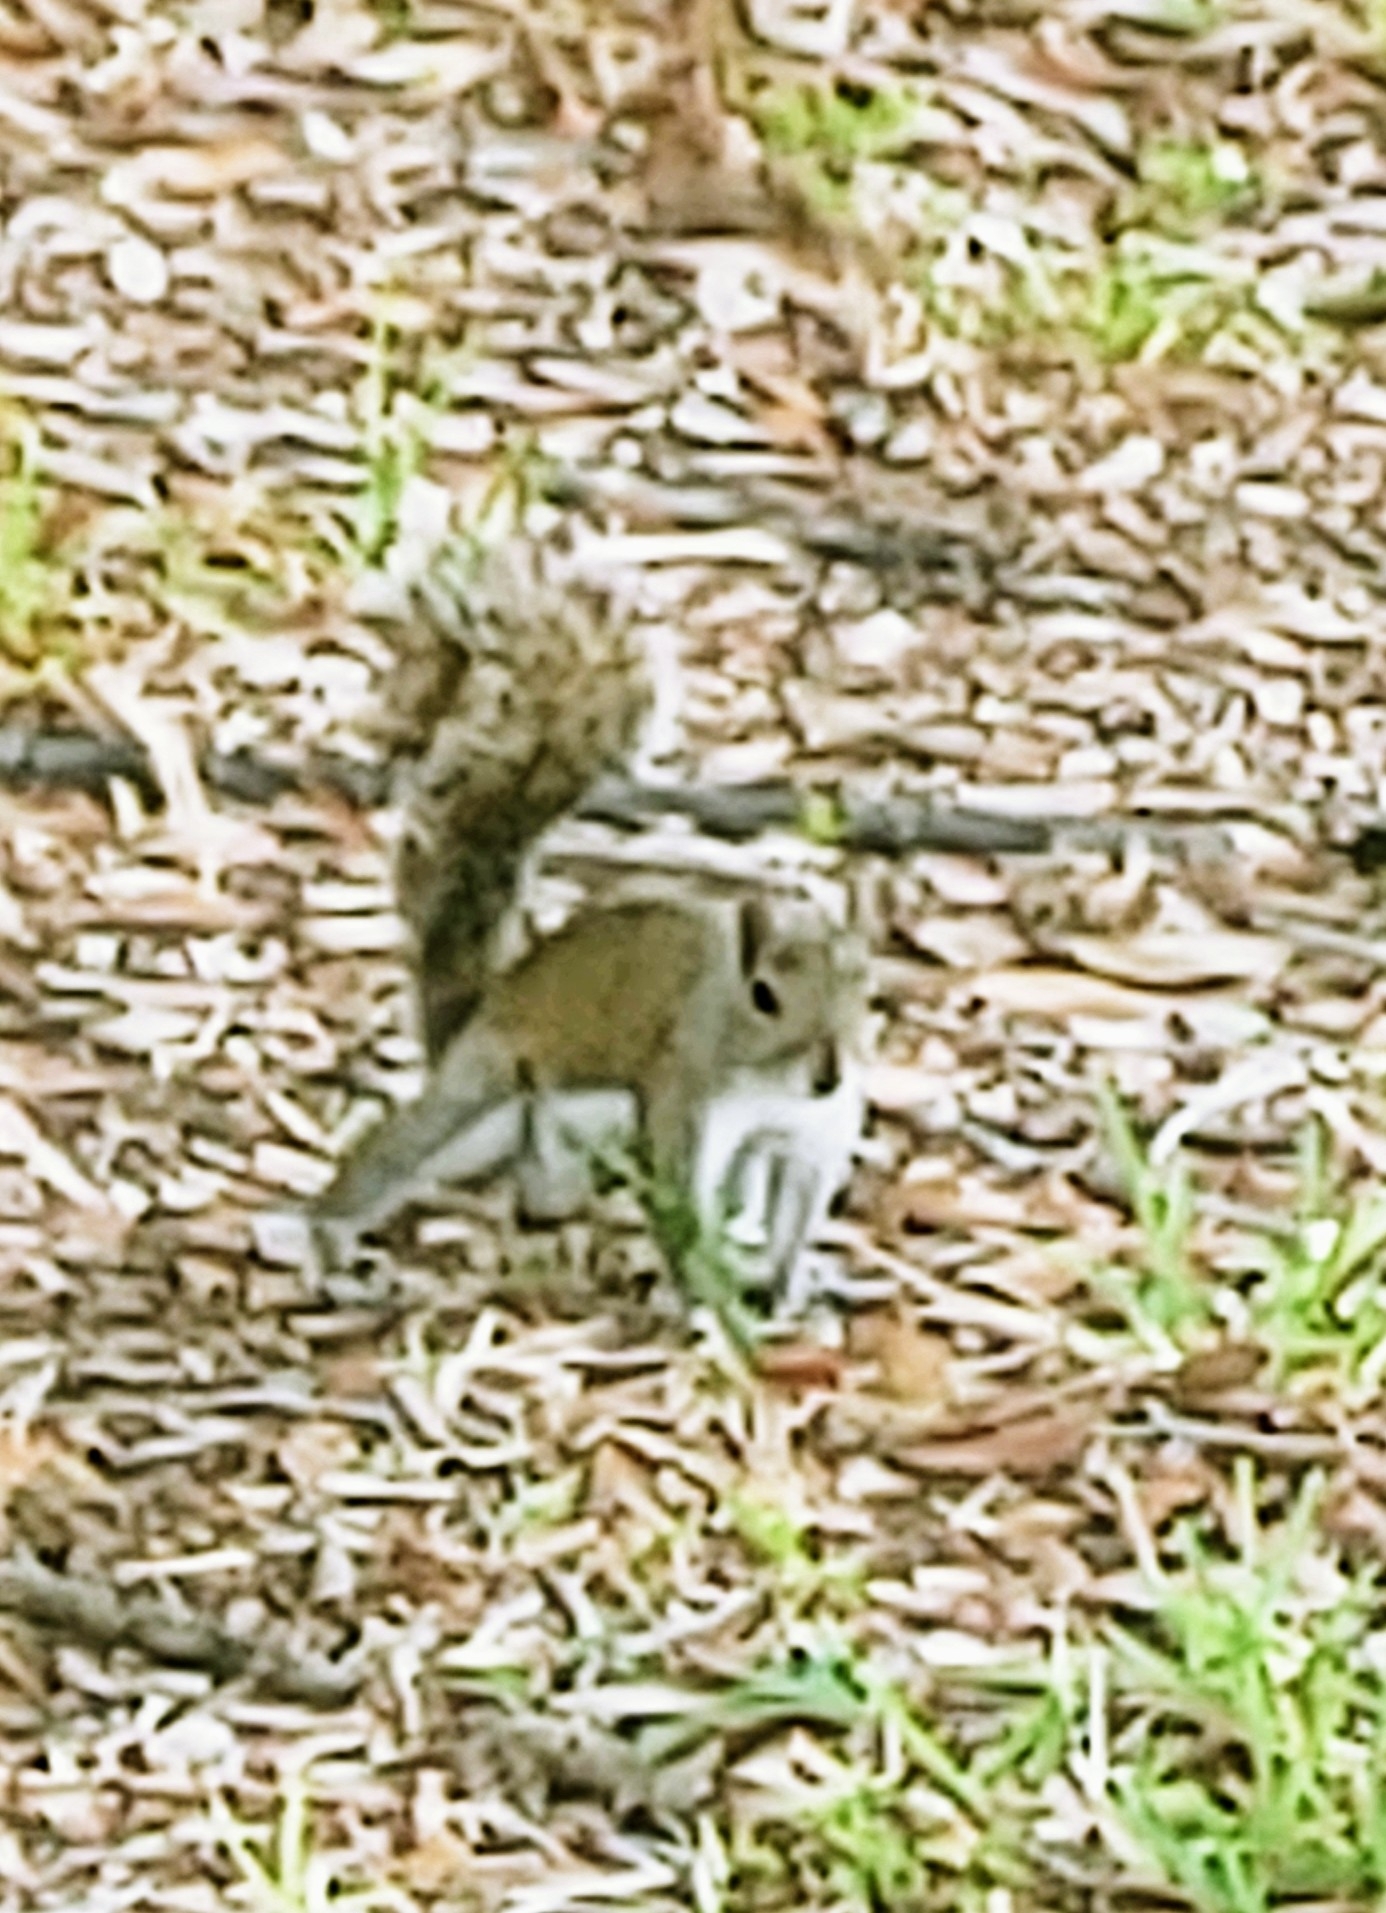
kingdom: Animalia
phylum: Chordata
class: Mammalia
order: Rodentia
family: Sciuridae
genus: Sciurus
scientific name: Sciurus carolinensis
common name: Eastern gray squirrel
